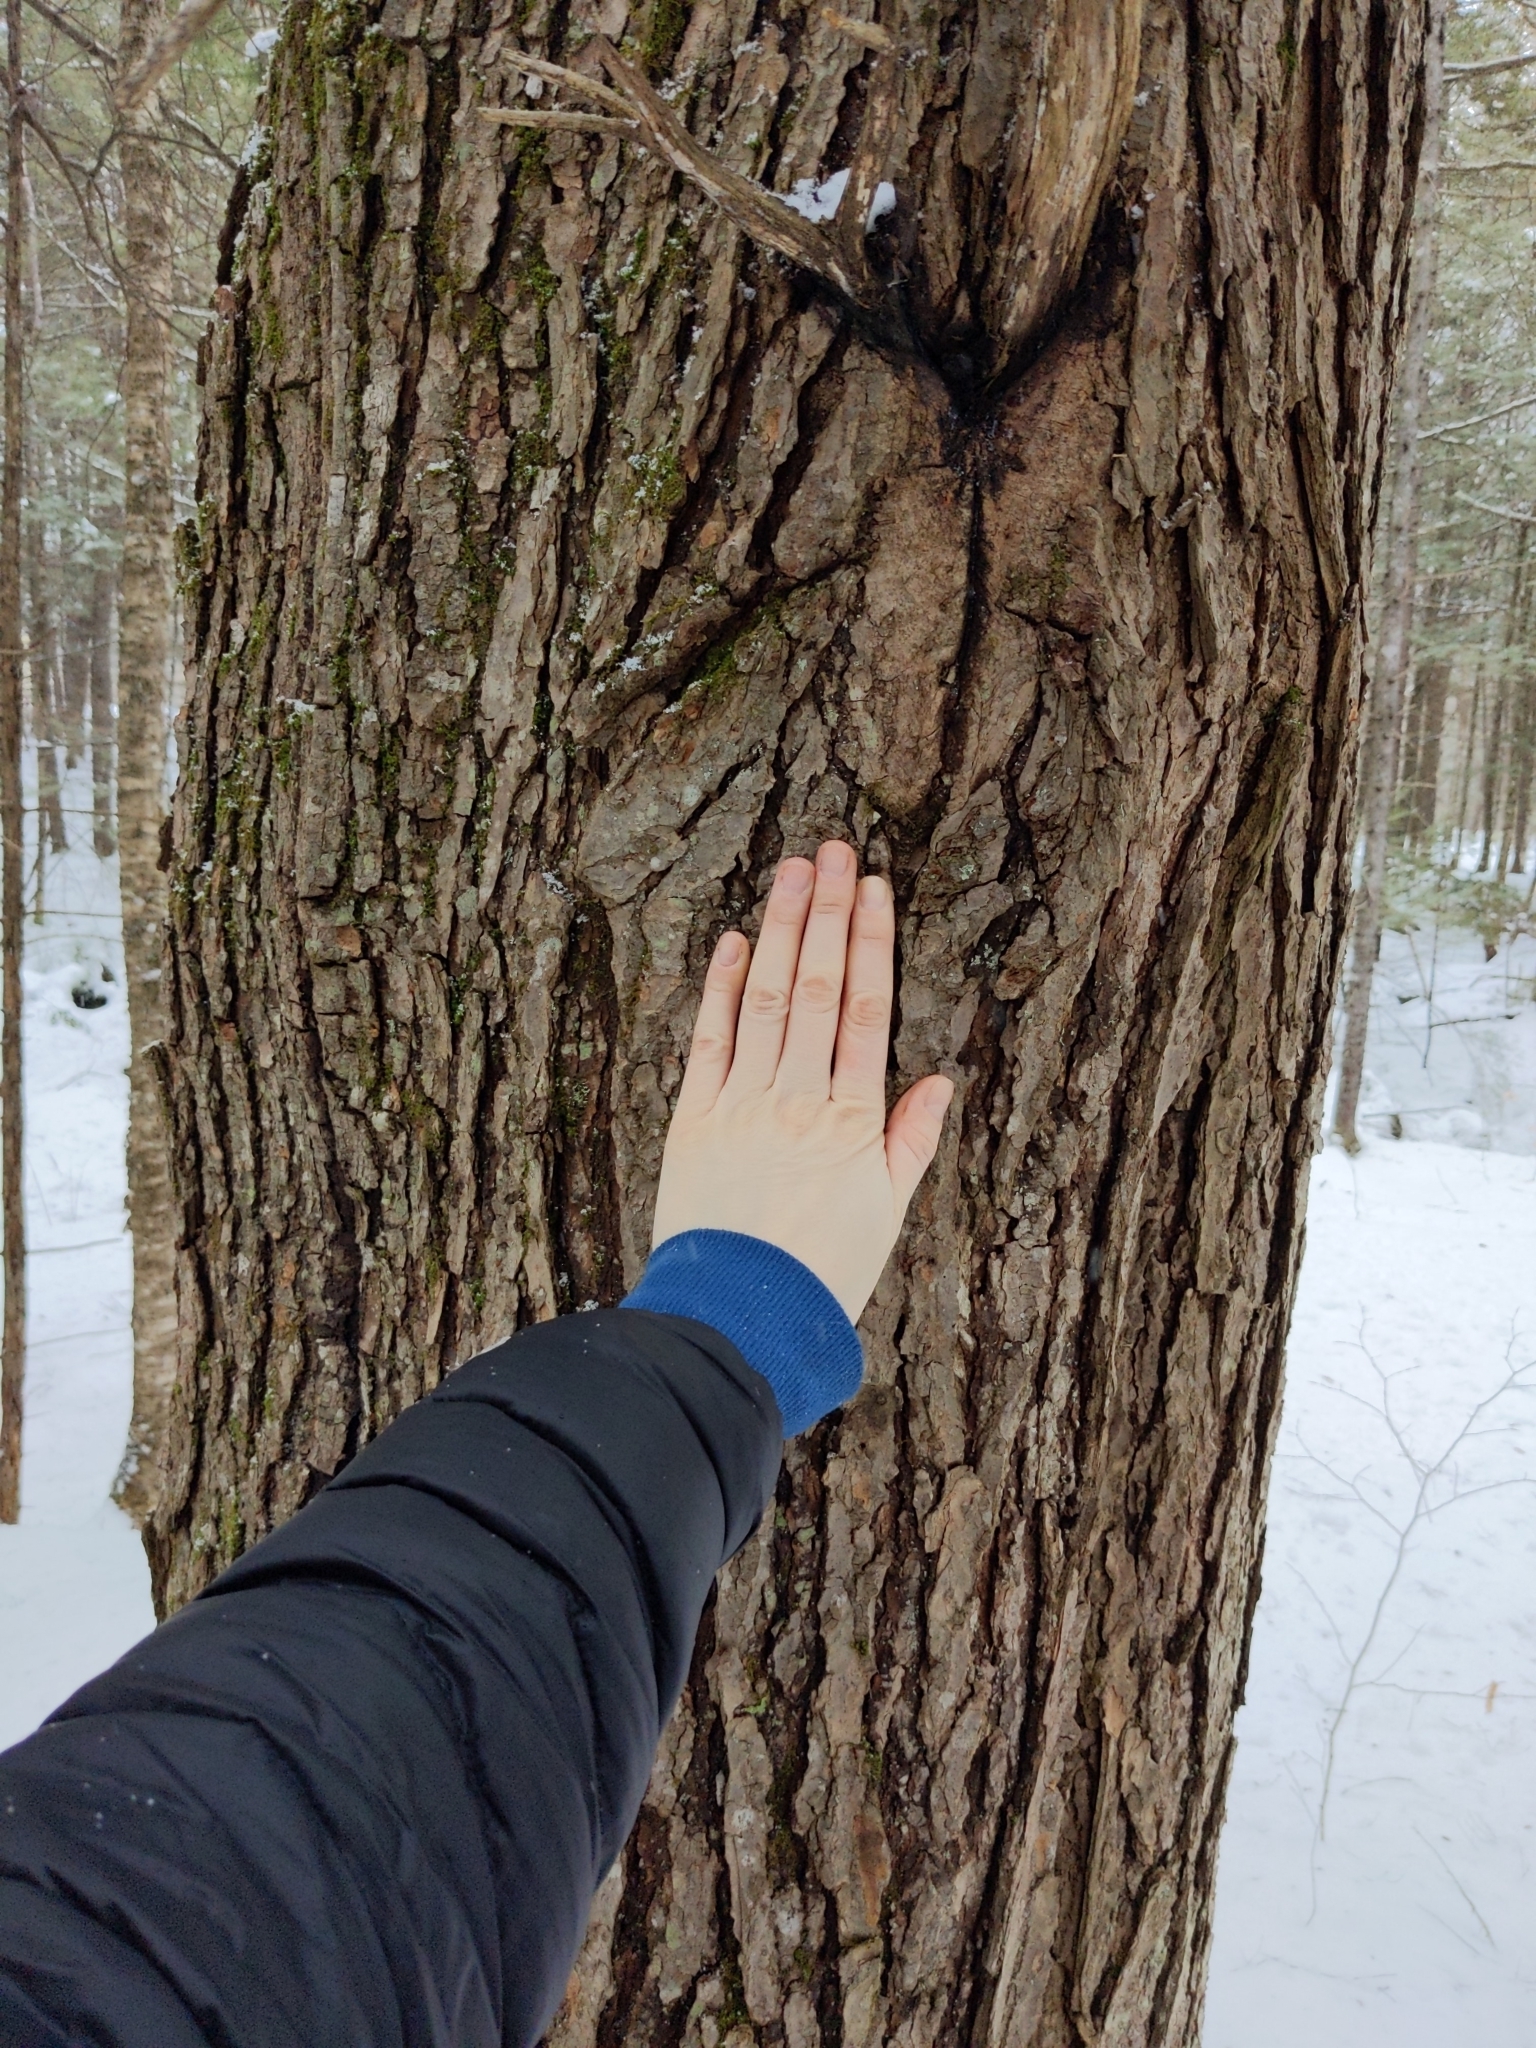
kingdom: Plantae
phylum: Tracheophyta
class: Pinopsida
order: Pinales
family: Pinaceae
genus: Tsuga
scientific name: Tsuga canadensis
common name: Eastern hemlock
